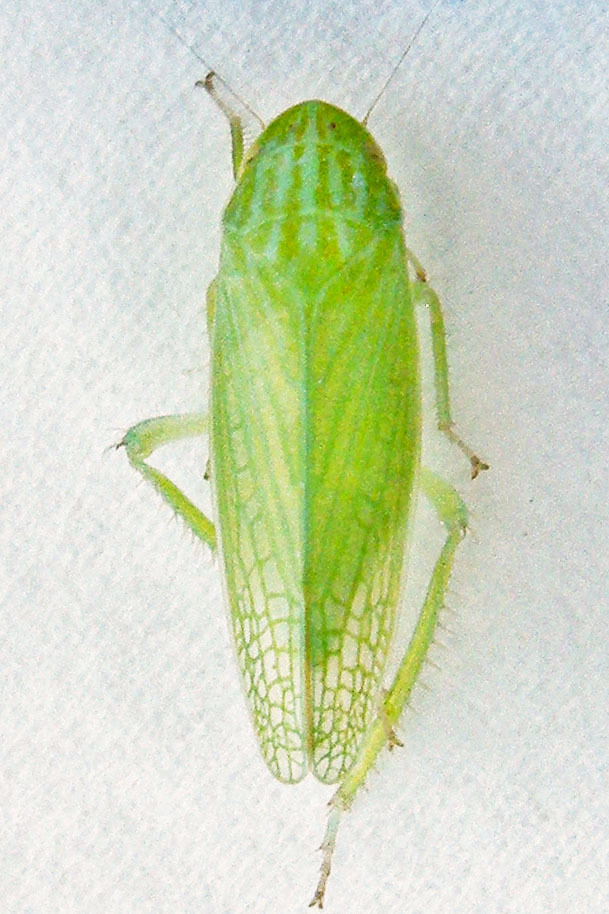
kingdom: Animalia
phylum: Arthropoda
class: Insecta
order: Hemiptera
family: Cicadellidae
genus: Gyponana
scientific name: Gyponana praelonga
